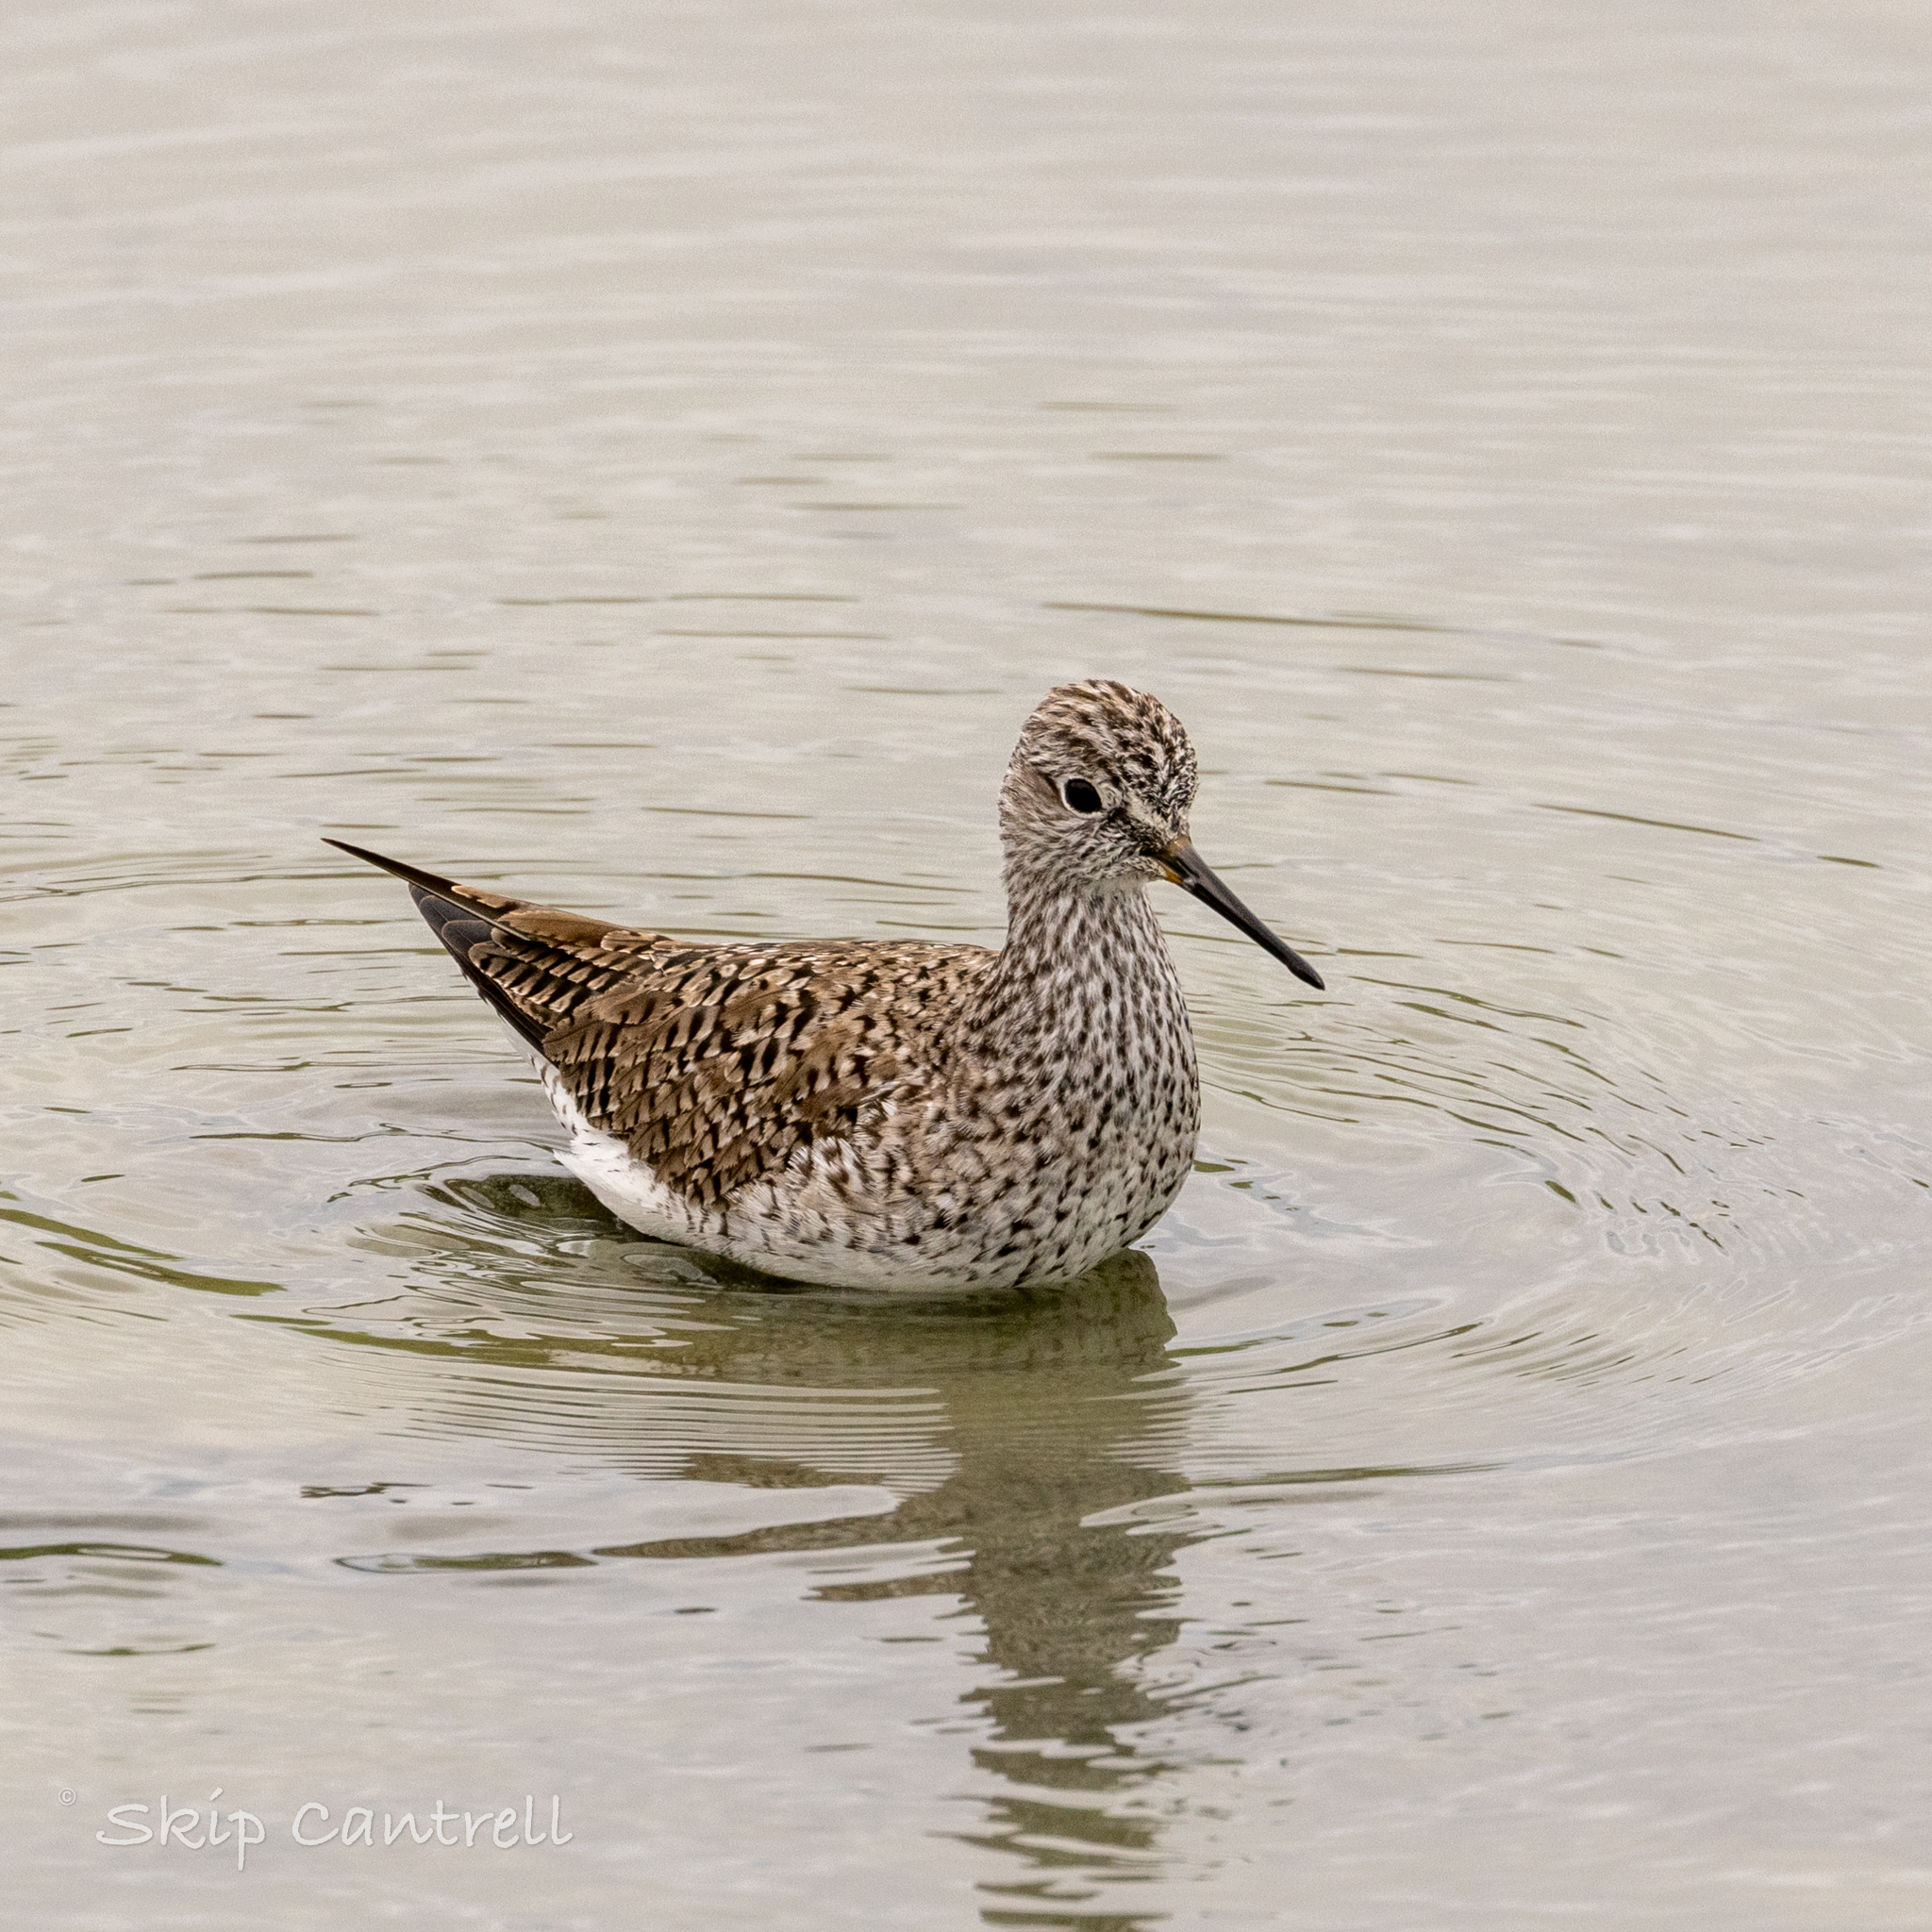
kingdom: Animalia
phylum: Chordata
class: Aves
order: Charadriiformes
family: Scolopacidae
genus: Tringa
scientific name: Tringa flavipes
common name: Lesser yellowlegs
